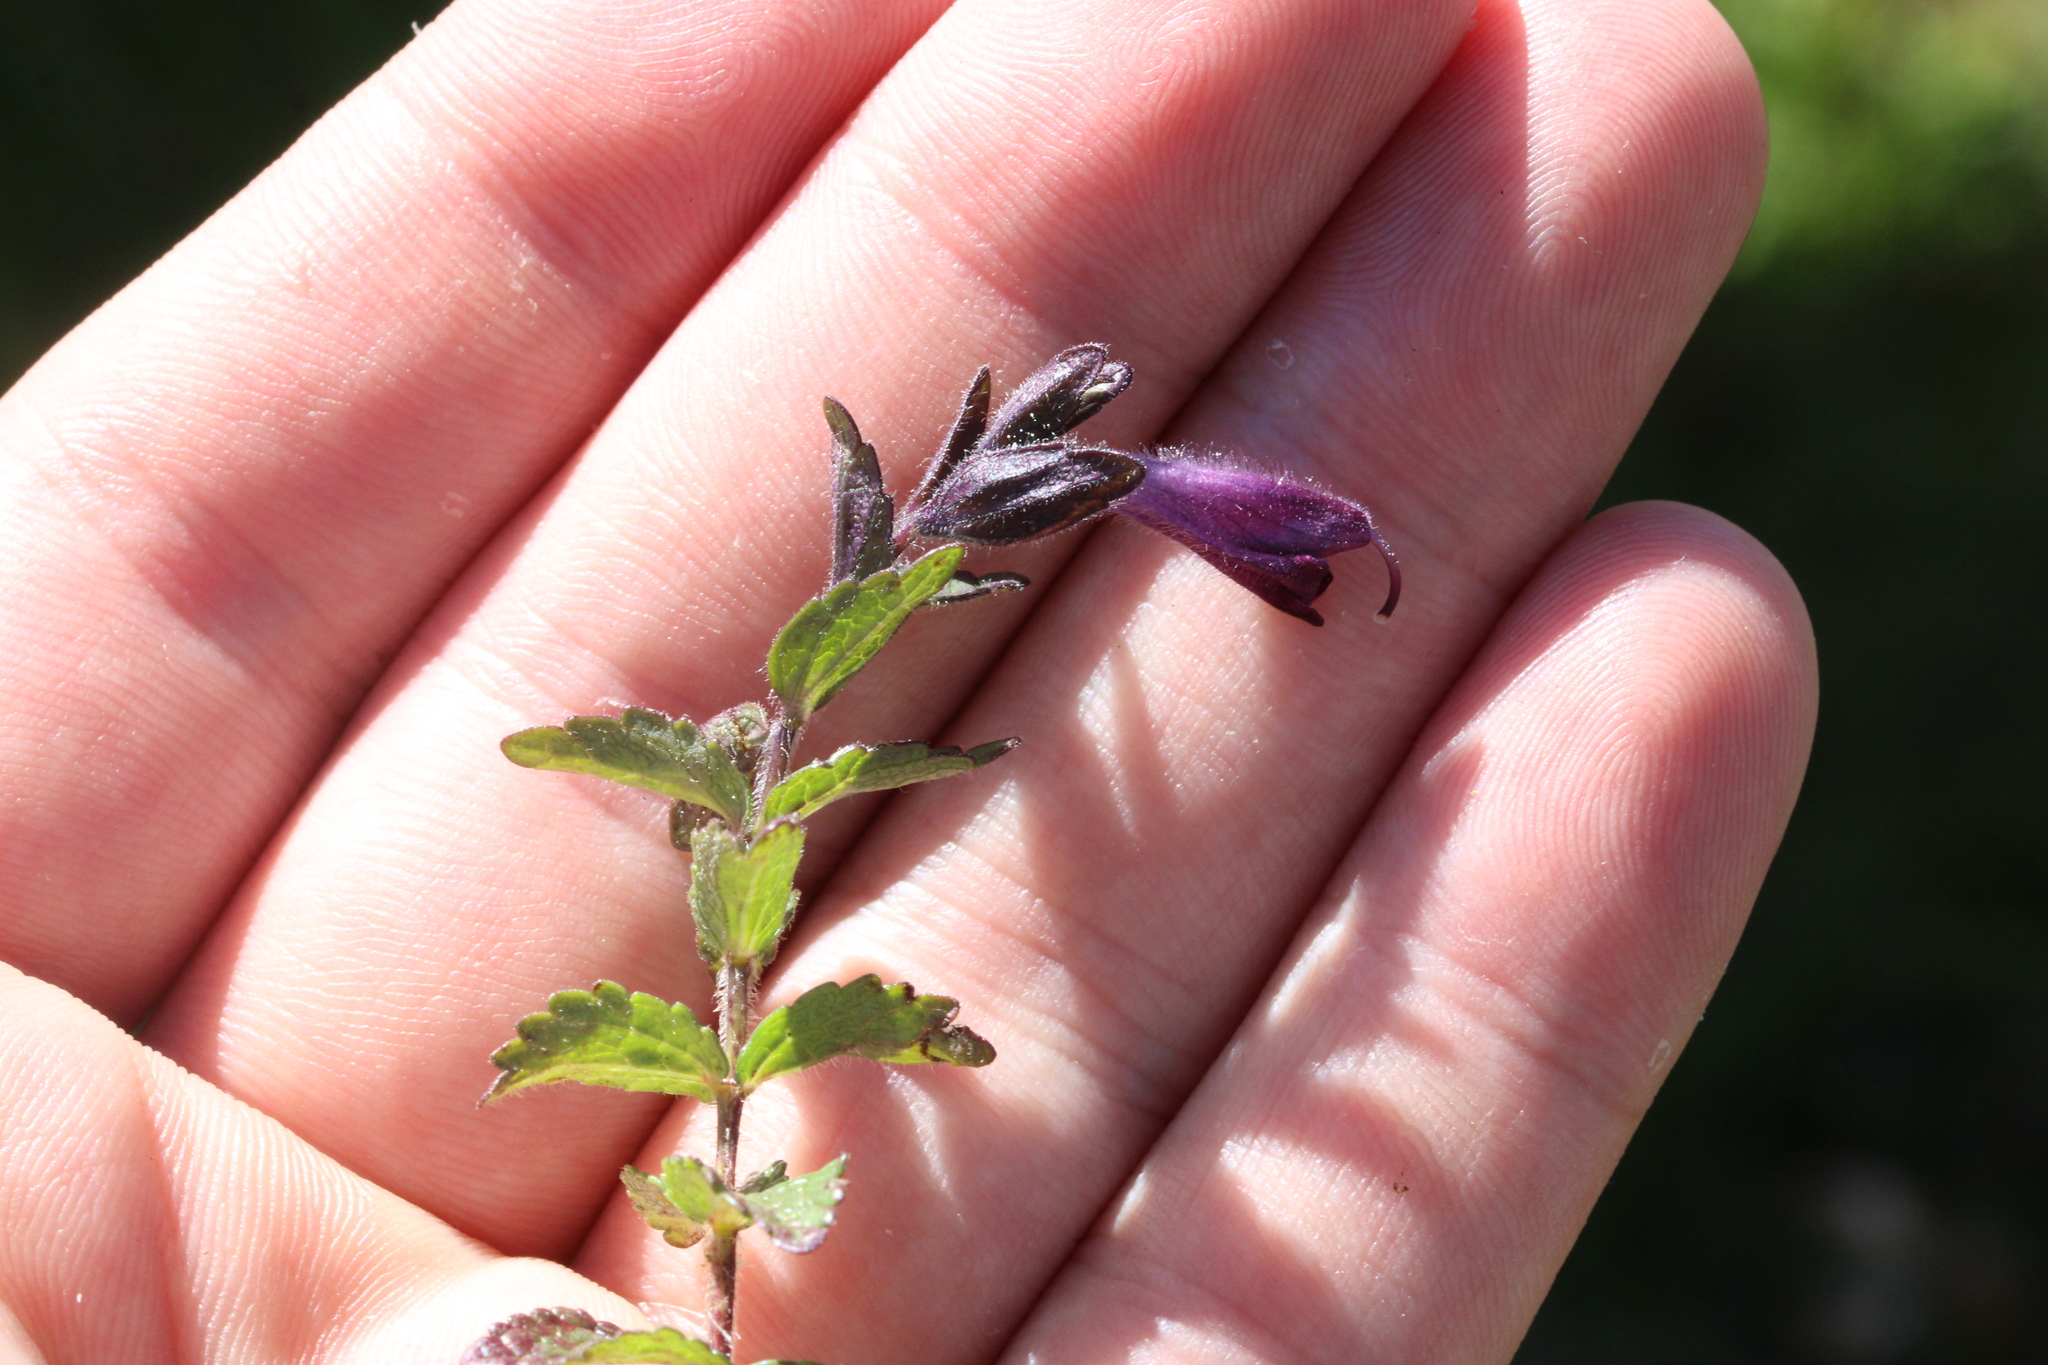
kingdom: Plantae
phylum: Tracheophyta
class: Magnoliopsida
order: Lamiales
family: Orobanchaceae
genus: Bartsia
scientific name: Bartsia alpina
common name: Alpine bartsia
